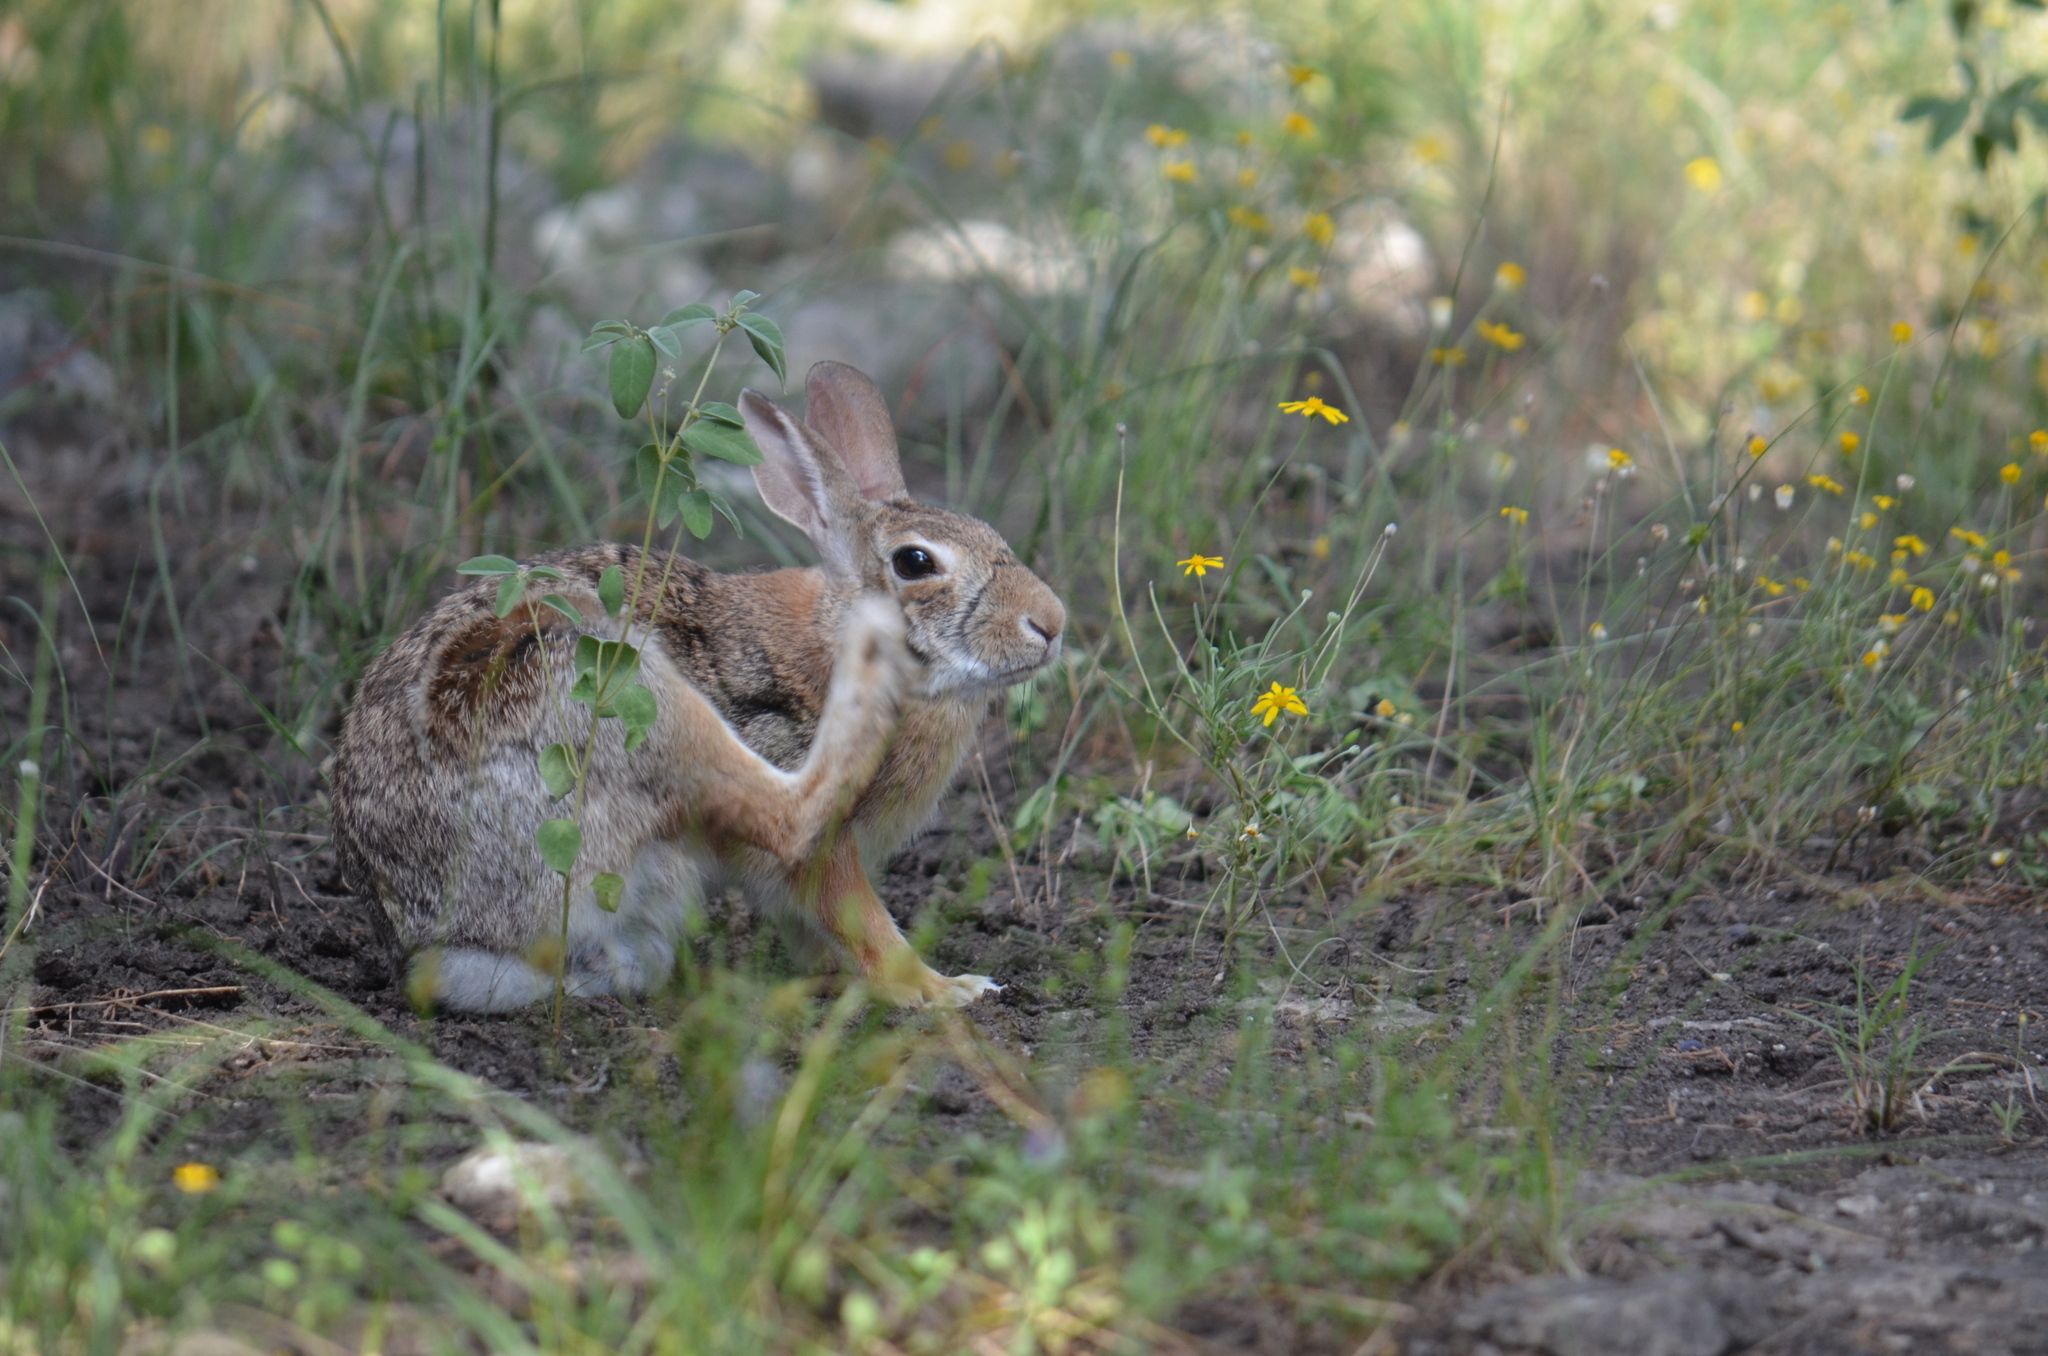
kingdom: Animalia
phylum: Chordata
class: Mammalia
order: Lagomorpha
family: Leporidae
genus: Sylvilagus
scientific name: Sylvilagus floridanus
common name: Eastern cottontail
